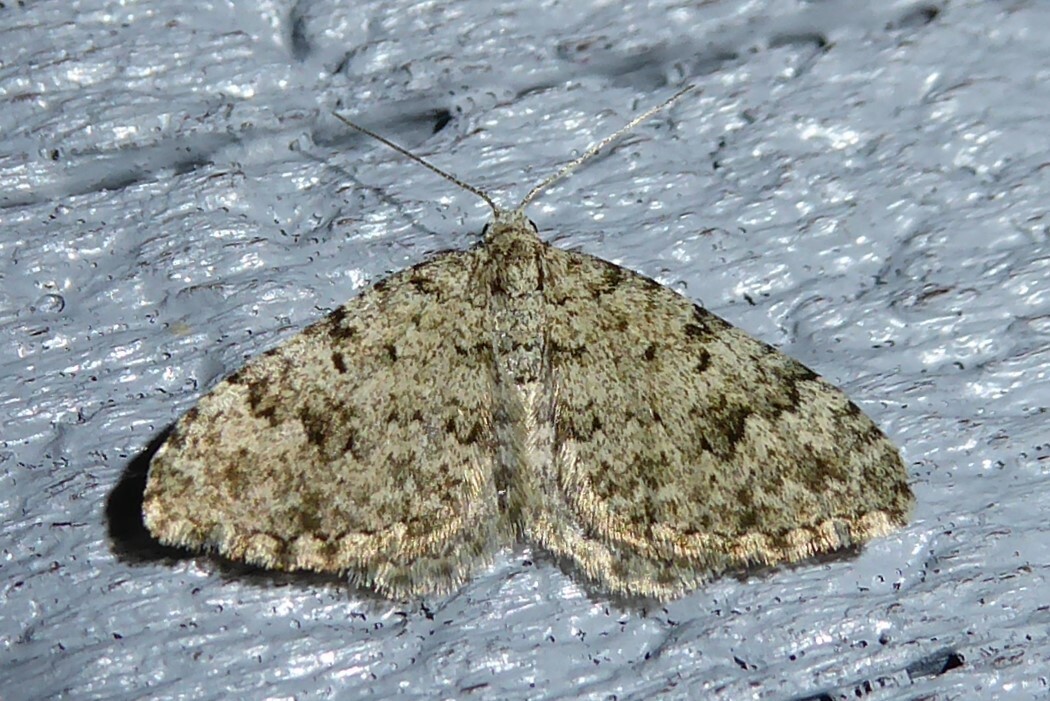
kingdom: Animalia
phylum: Arthropoda
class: Insecta
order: Lepidoptera
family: Geometridae
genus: Helastia
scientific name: Helastia cinerearia
